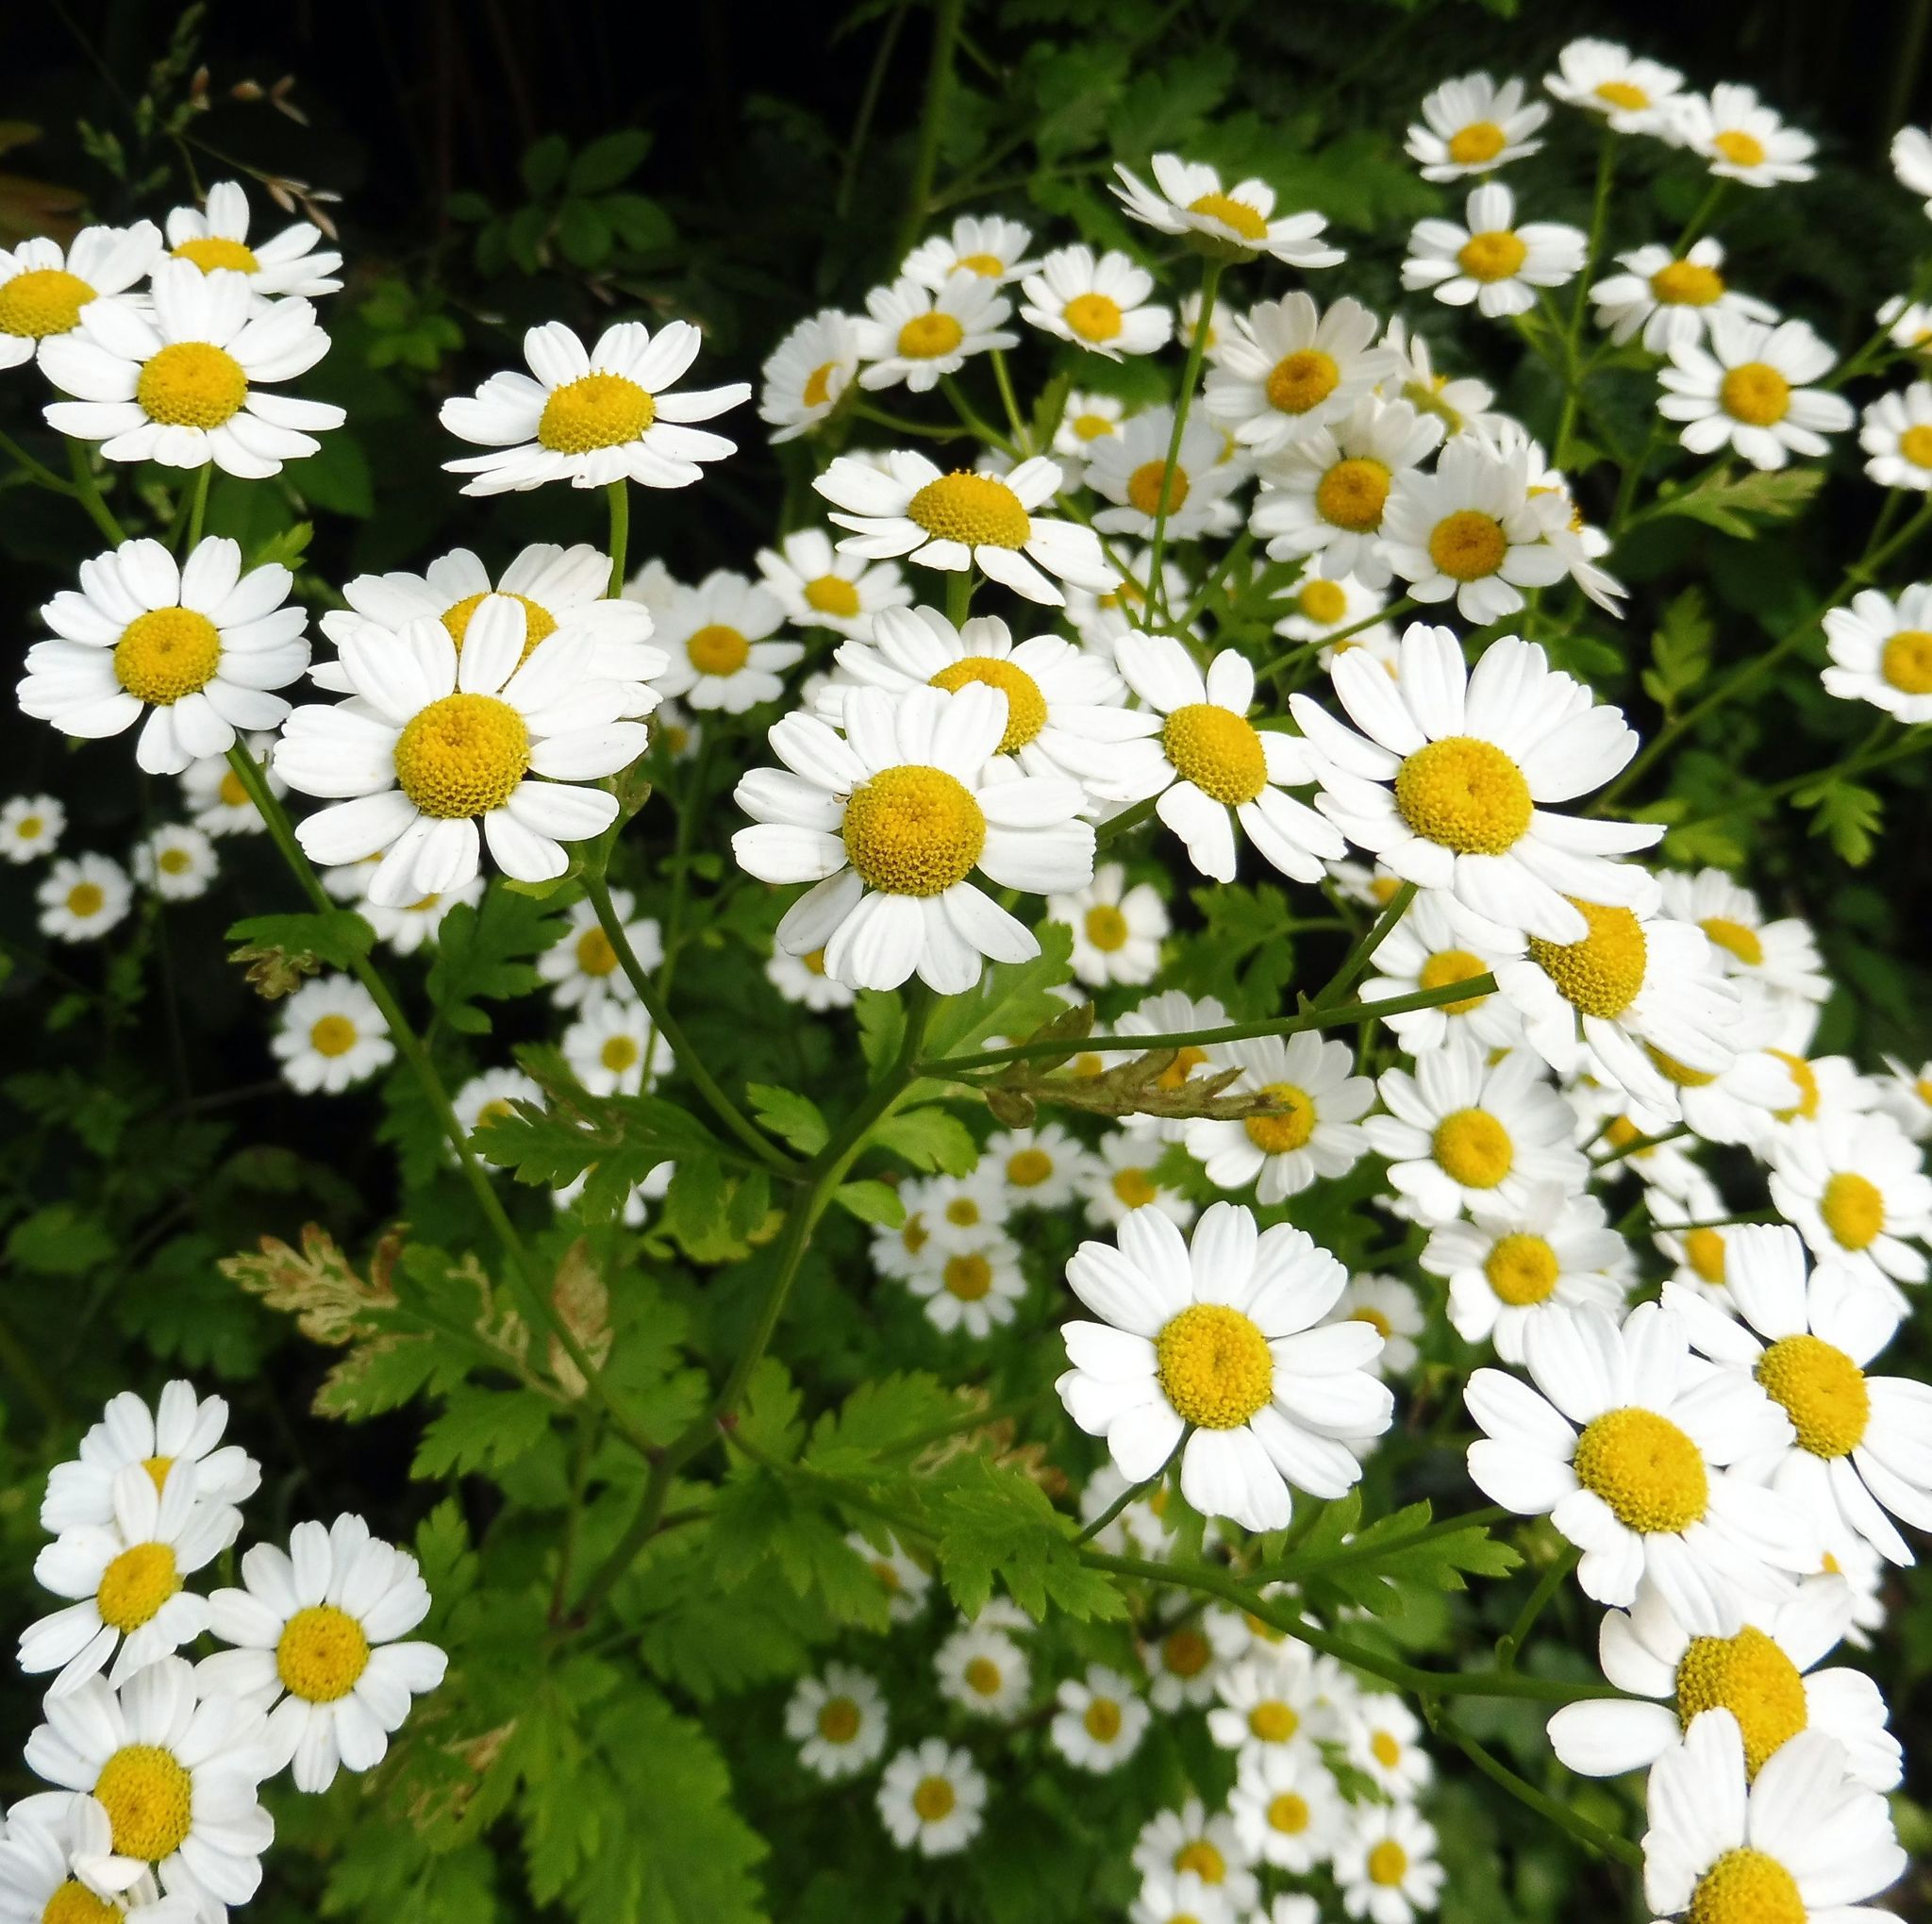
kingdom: Plantae
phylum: Tracheophyta
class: Magnoliopsida
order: Asterales
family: Asteraceae
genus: Tanacetum
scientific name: Tanacetum parthenium
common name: Feverfew
